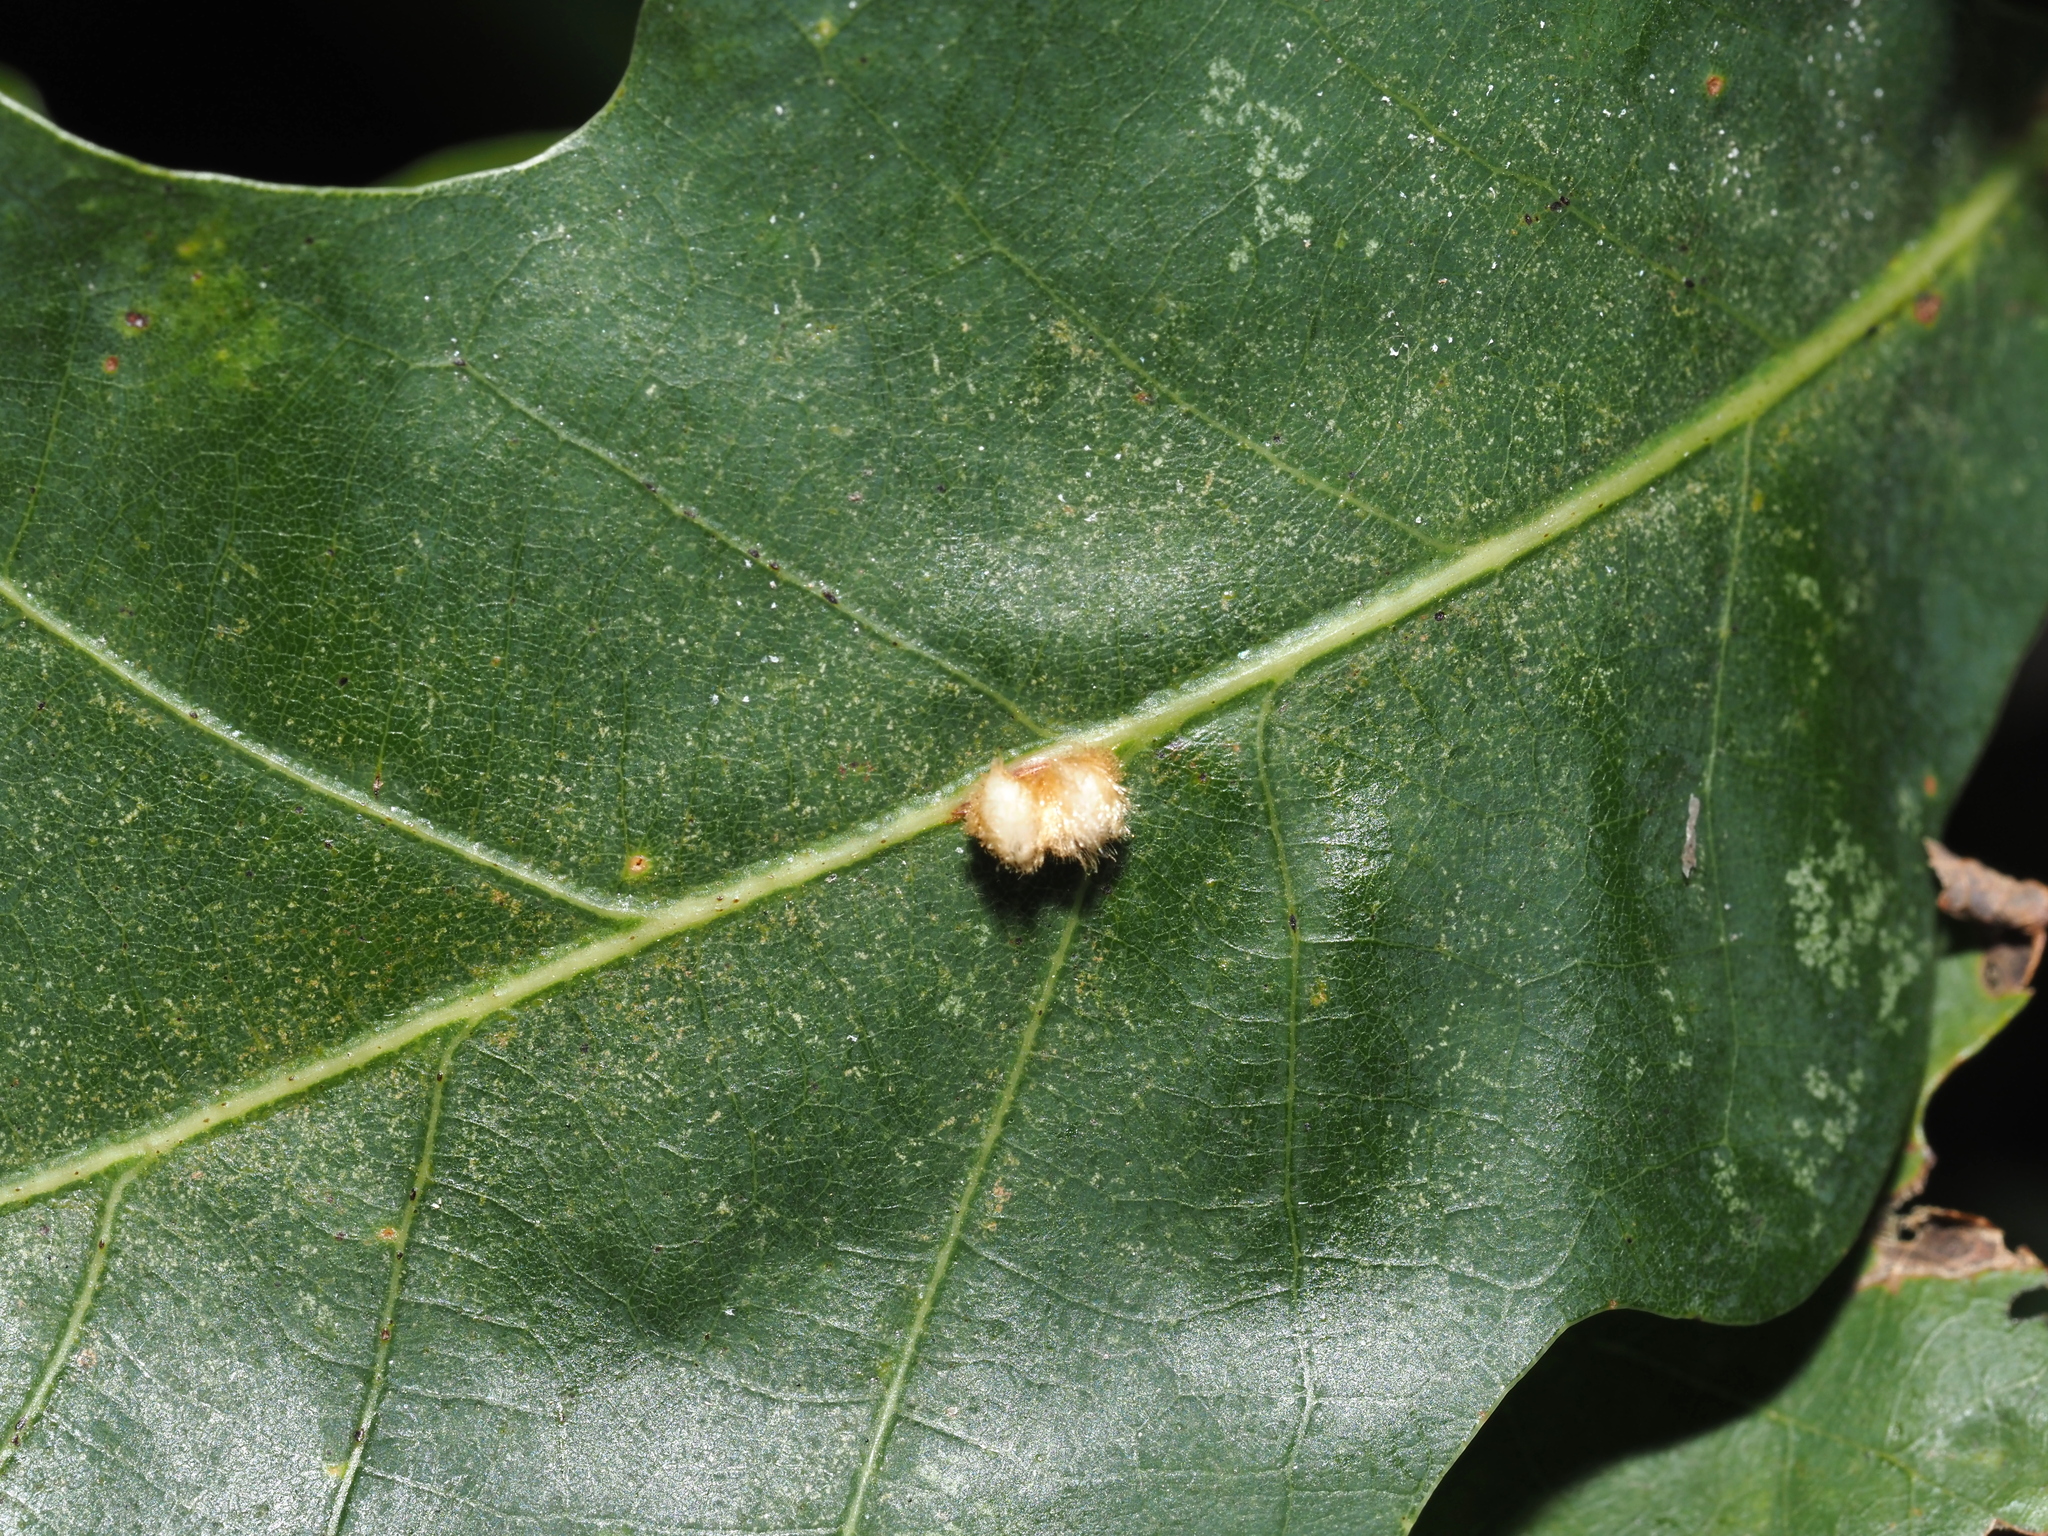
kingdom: Animalia
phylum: Arthropoda
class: Insecta
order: Hymenoptera
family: Cynipidae
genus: Andricus
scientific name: Andricus quercusflocci
